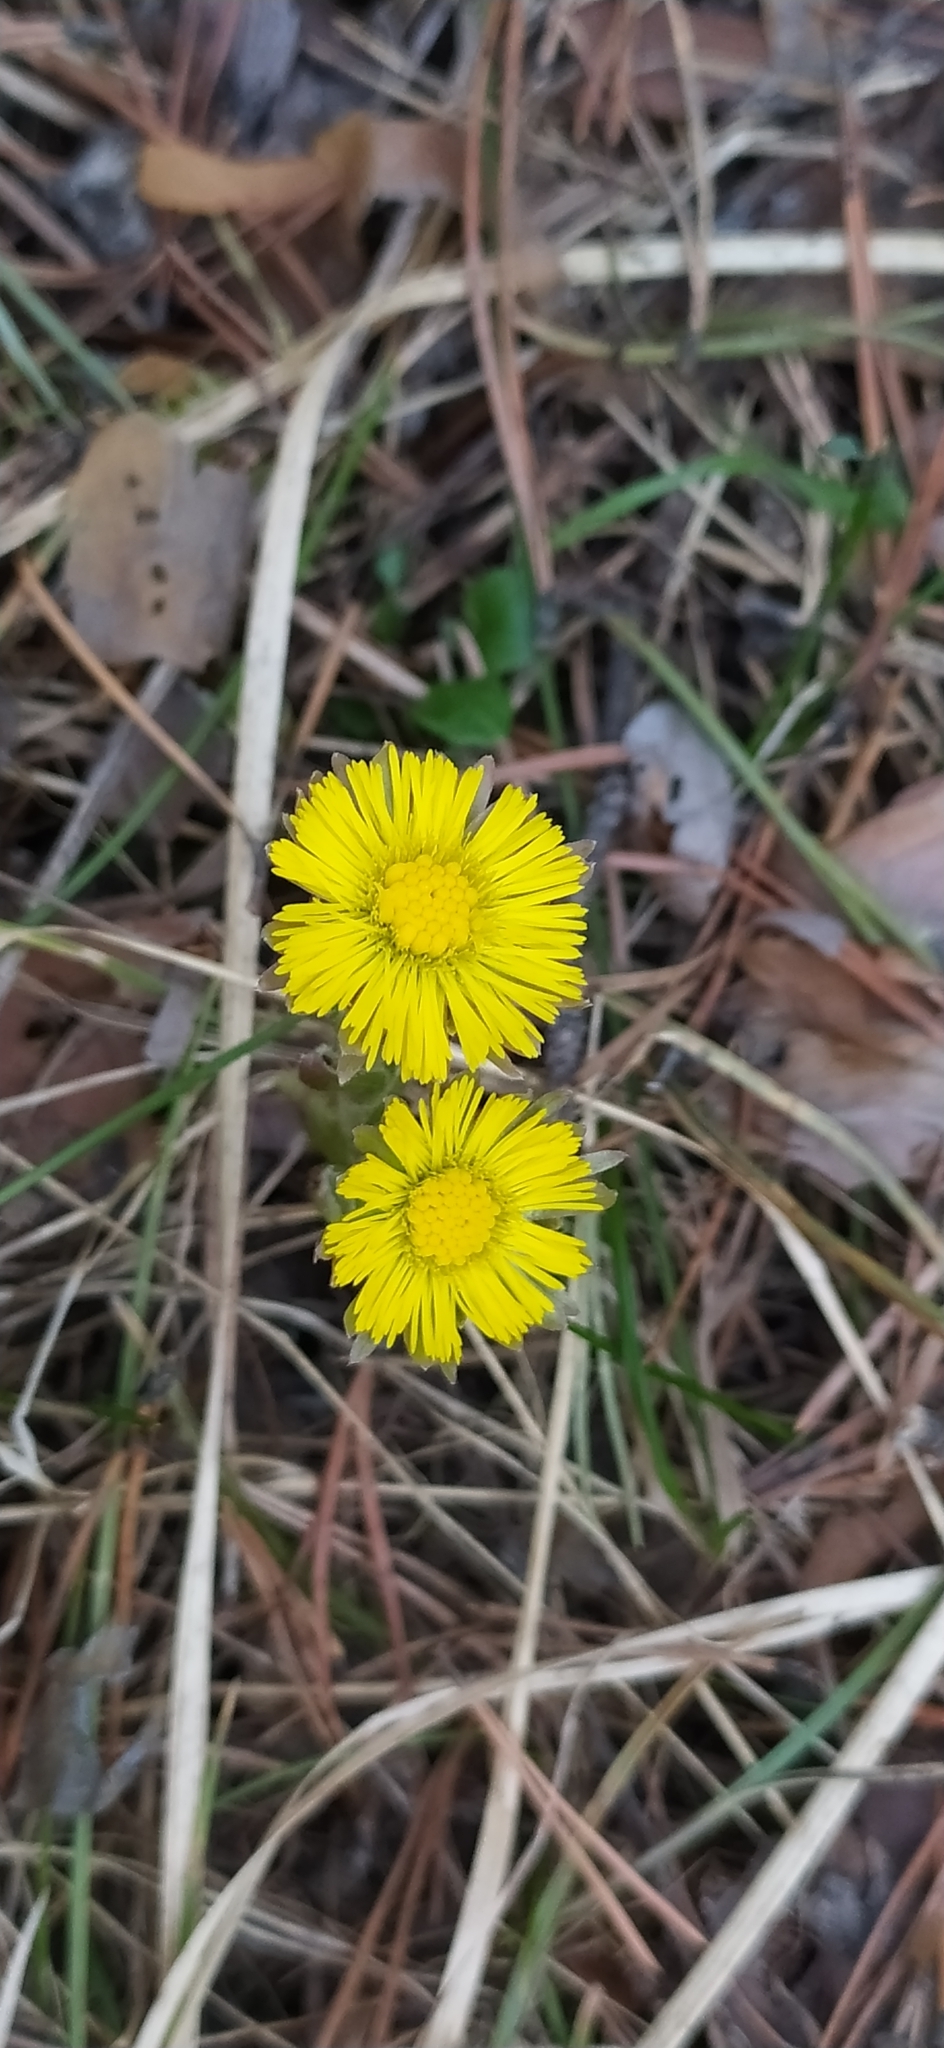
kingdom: Plantae
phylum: Tracheophyta
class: Magnoliopsida
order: Asterales
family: Asteraceae
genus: Tussilago
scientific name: Tussilago farfara
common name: Coltsfoot
